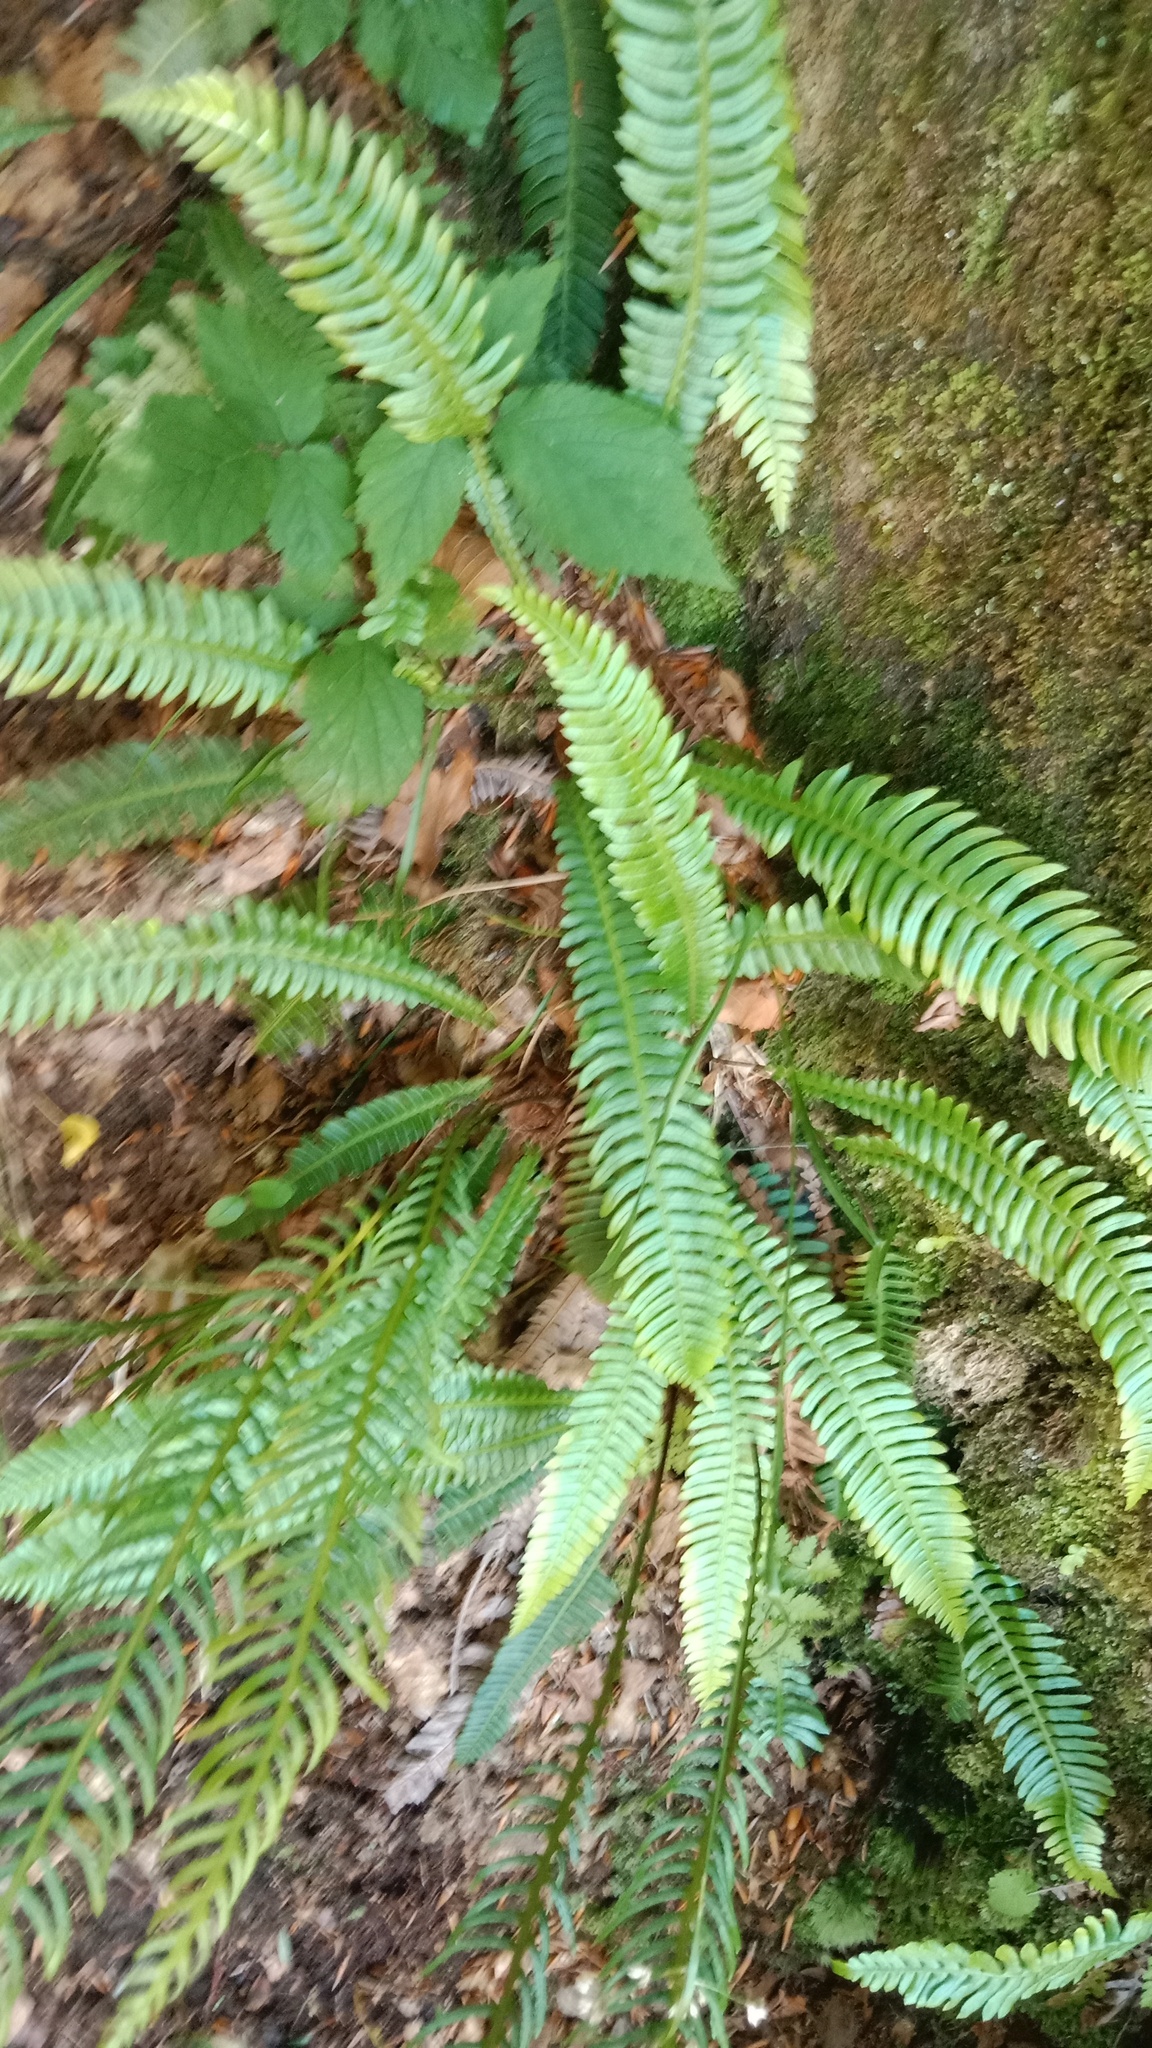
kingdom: Plantae
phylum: Tracheophyta
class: Polypodiopsida
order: Polypodiales
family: Blechnaceae
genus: Struthiopteris
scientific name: Struthiopteris spicant
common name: Deer fern
